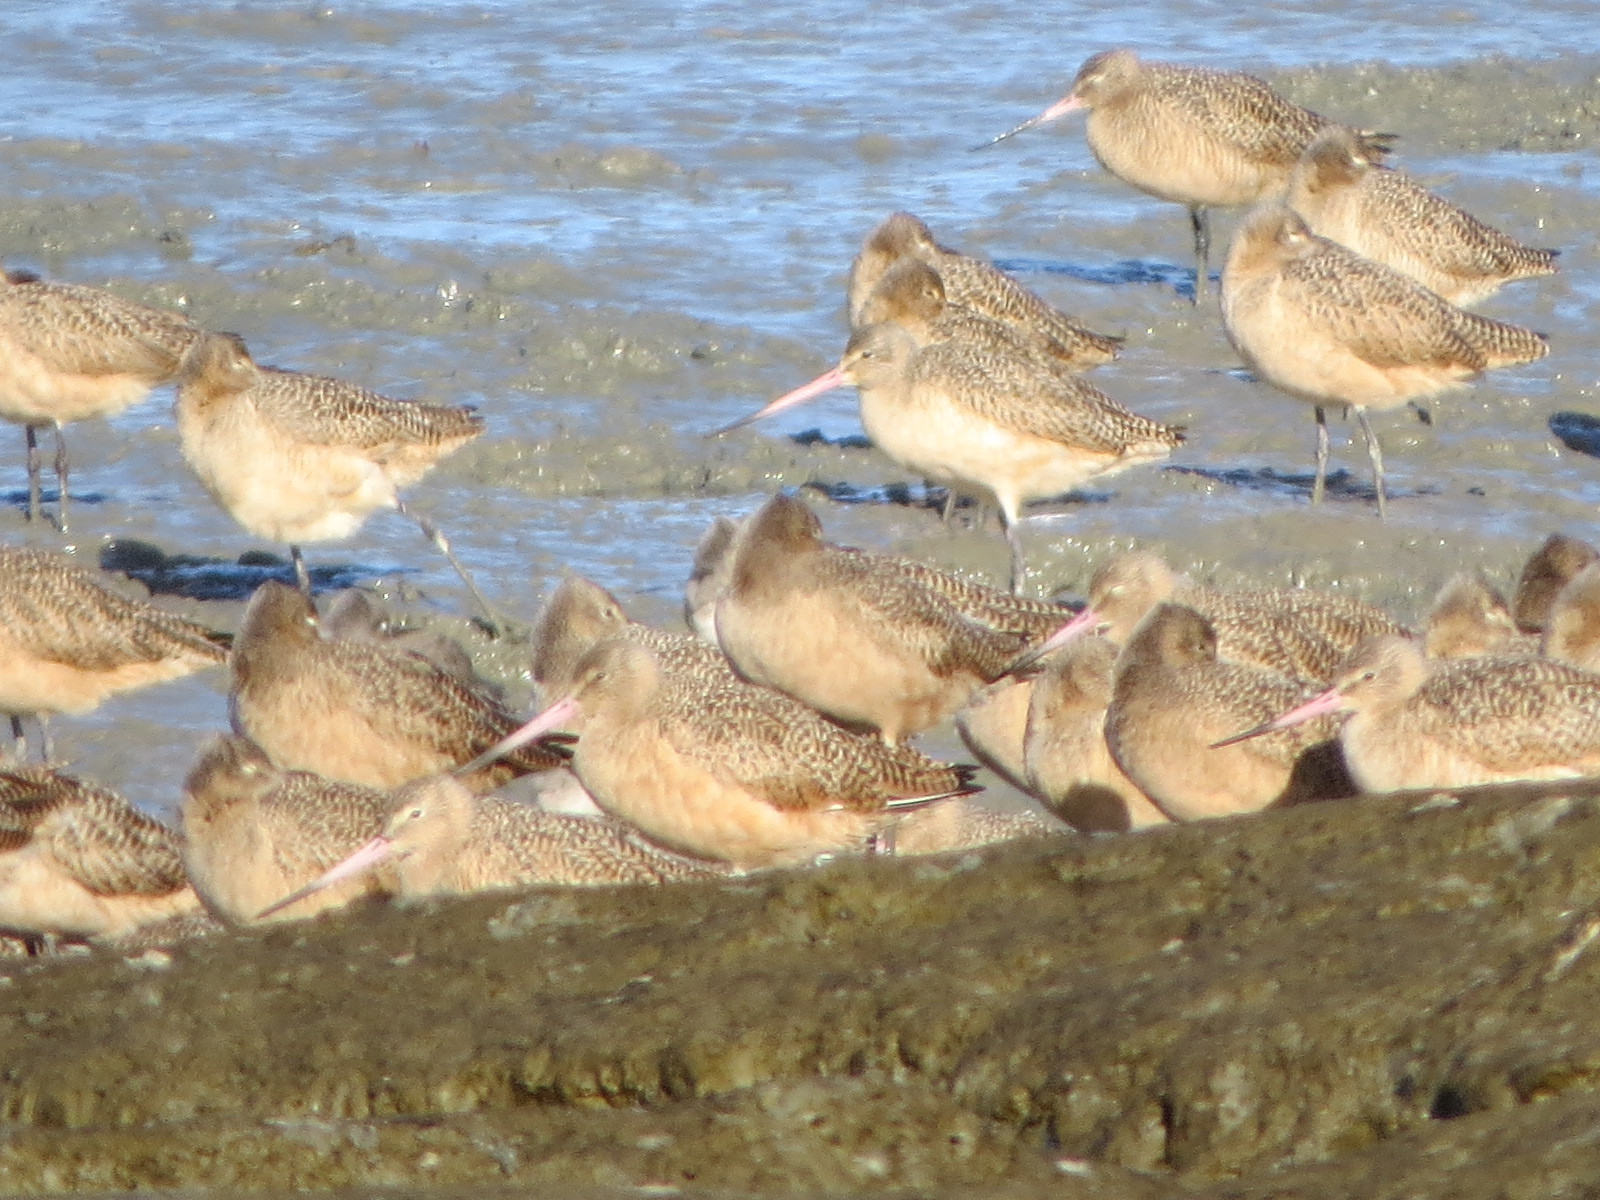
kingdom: Animalia
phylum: Chordata
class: Aves
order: Charadriiformes
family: Scolopacidae
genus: Limosa
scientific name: Limosa fedoa
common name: Marbled godwit
